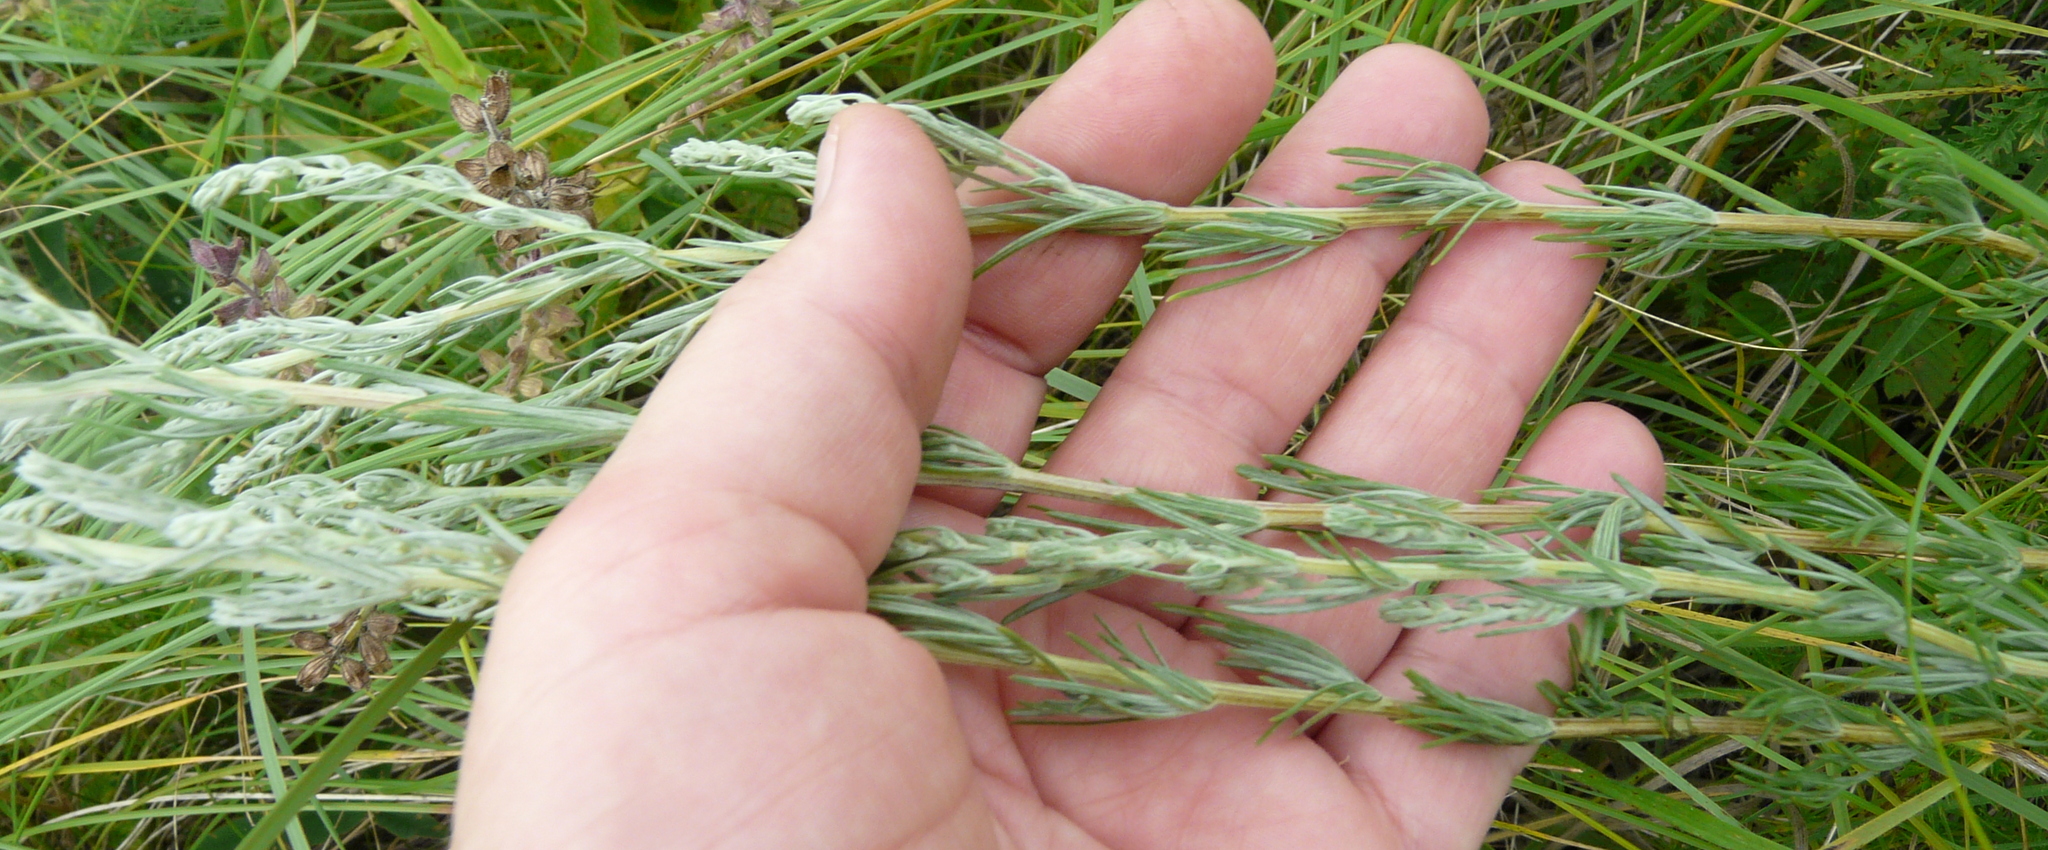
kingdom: Plantae
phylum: Tracheophyta
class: Magnoliopsida
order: Asterales
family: Asteraceae
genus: Artemisia
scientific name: Artemisia campestris
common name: Field wormwood
